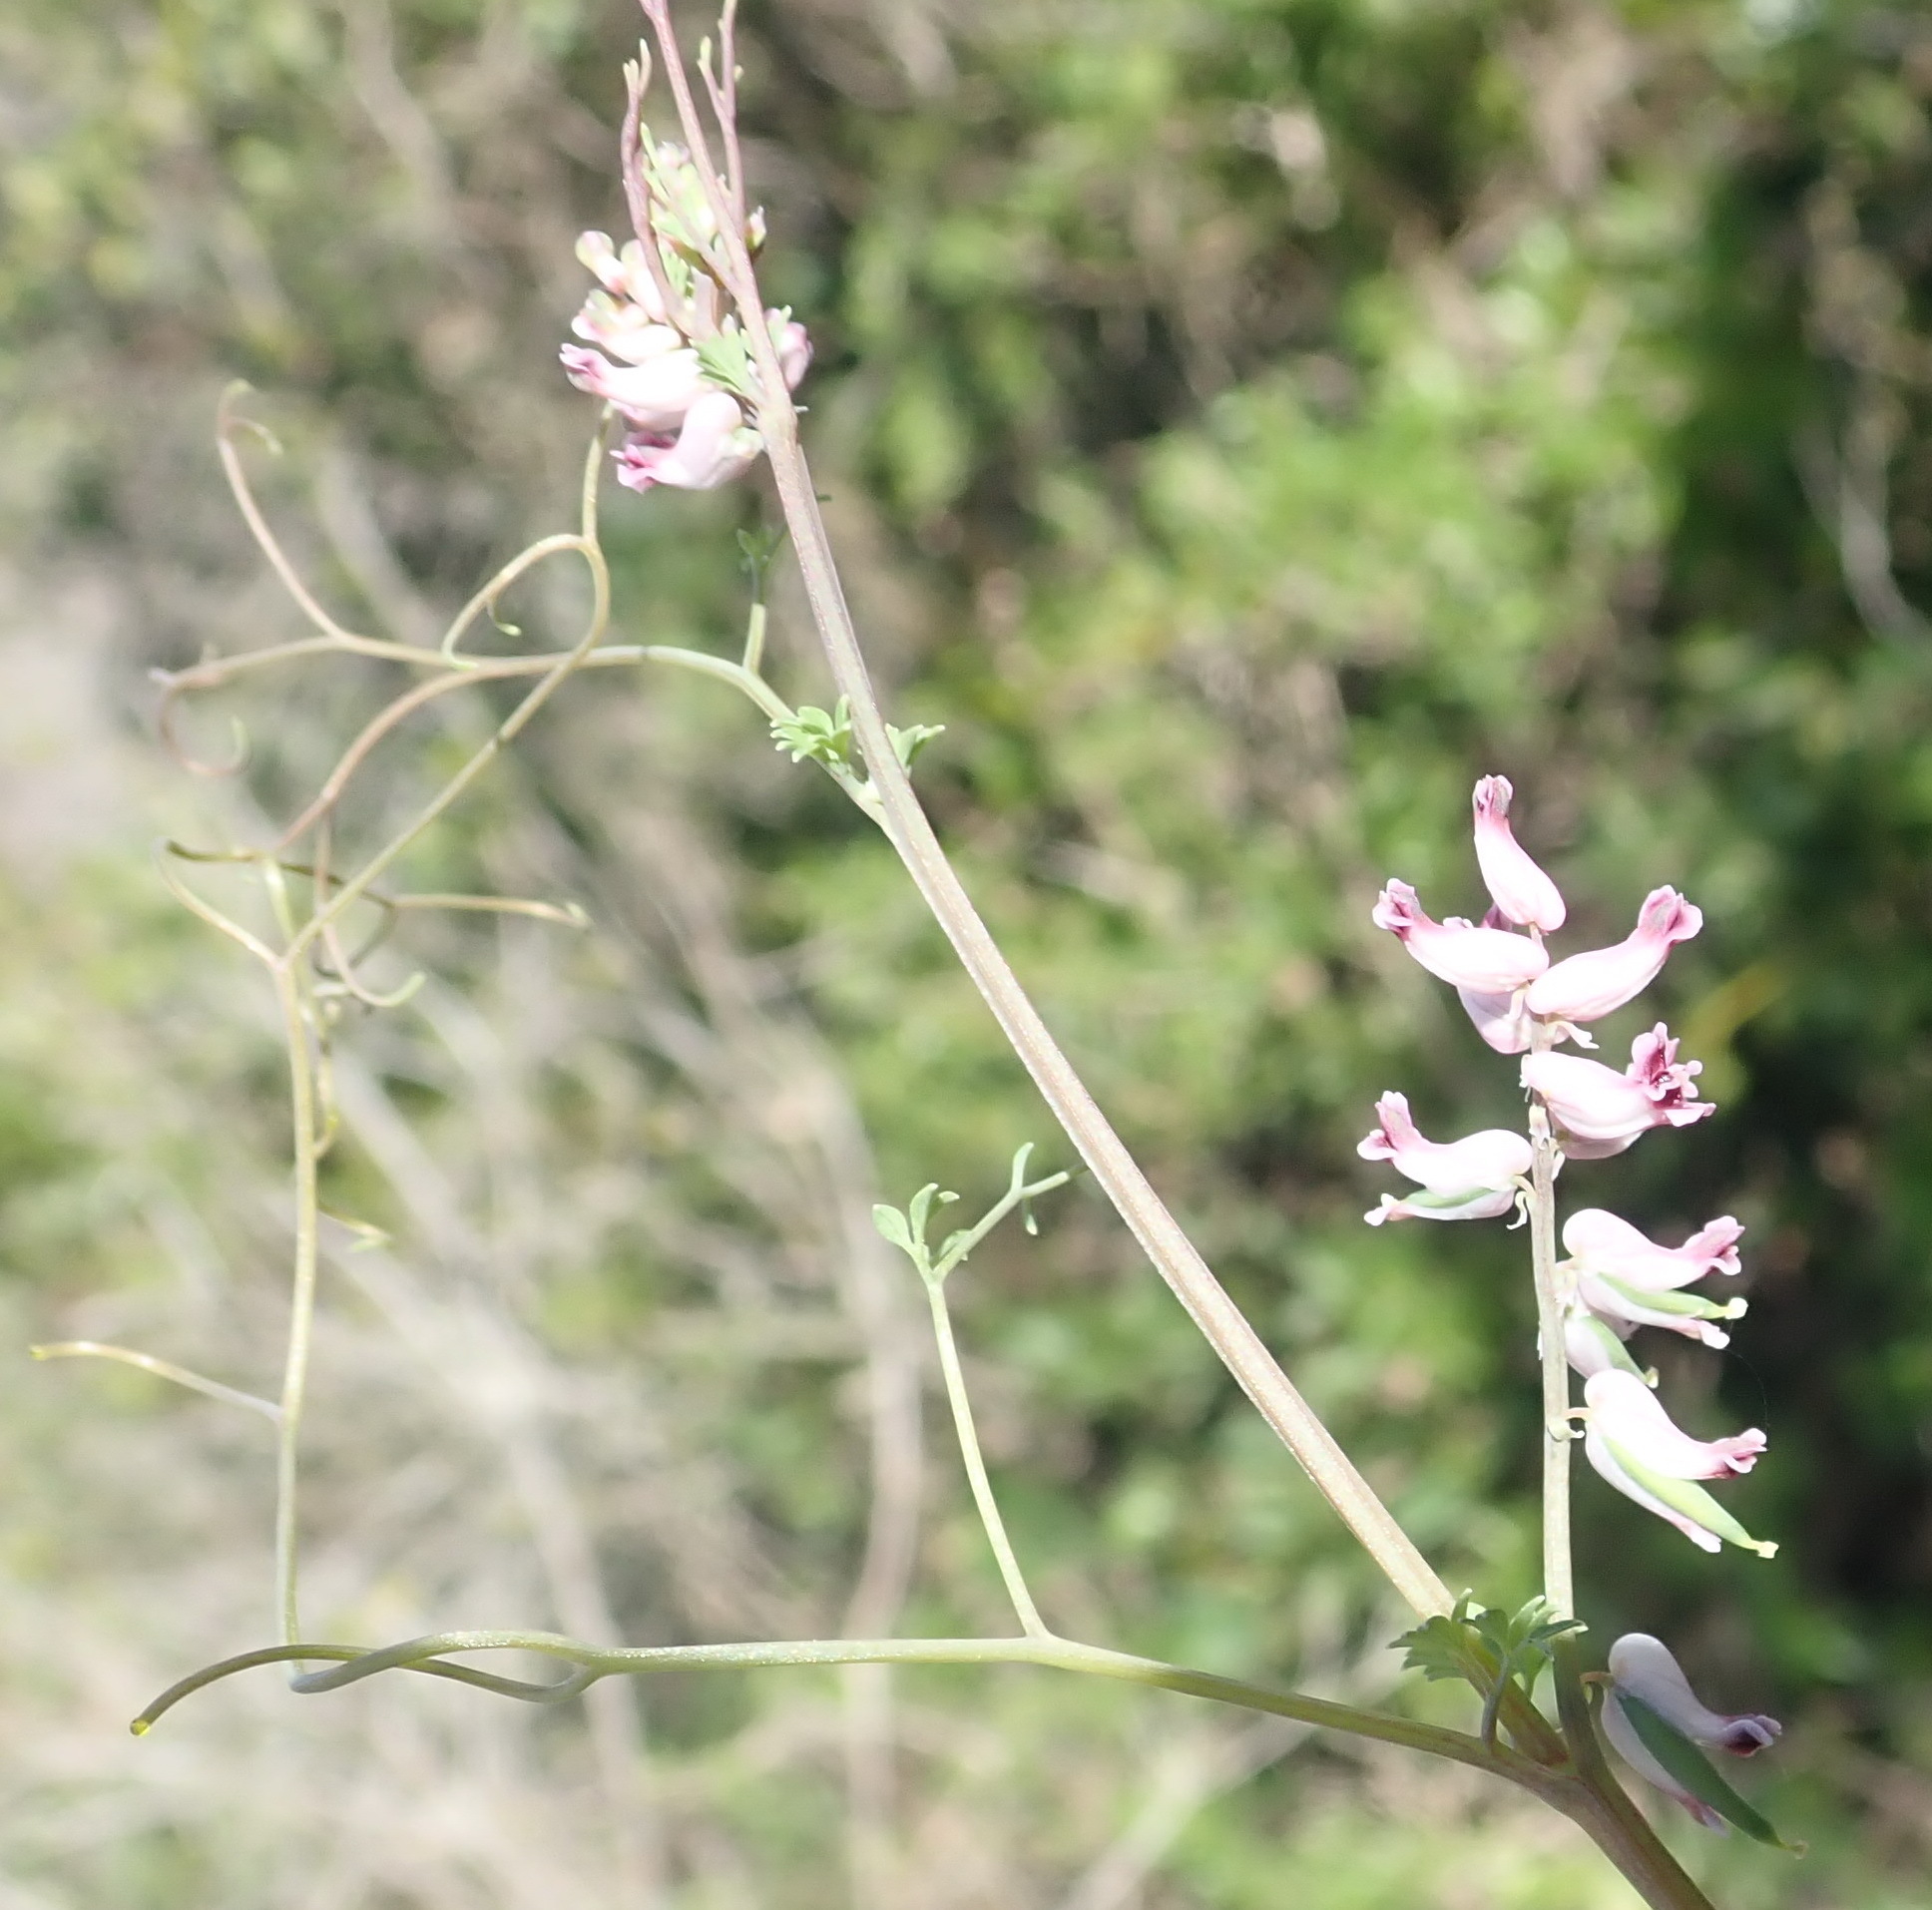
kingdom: Plantae
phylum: Tracheophyta
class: Magnoliopsida
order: Ranunculales
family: Papaveraceae
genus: Cysticapnos
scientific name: Cysticapnos cracca
